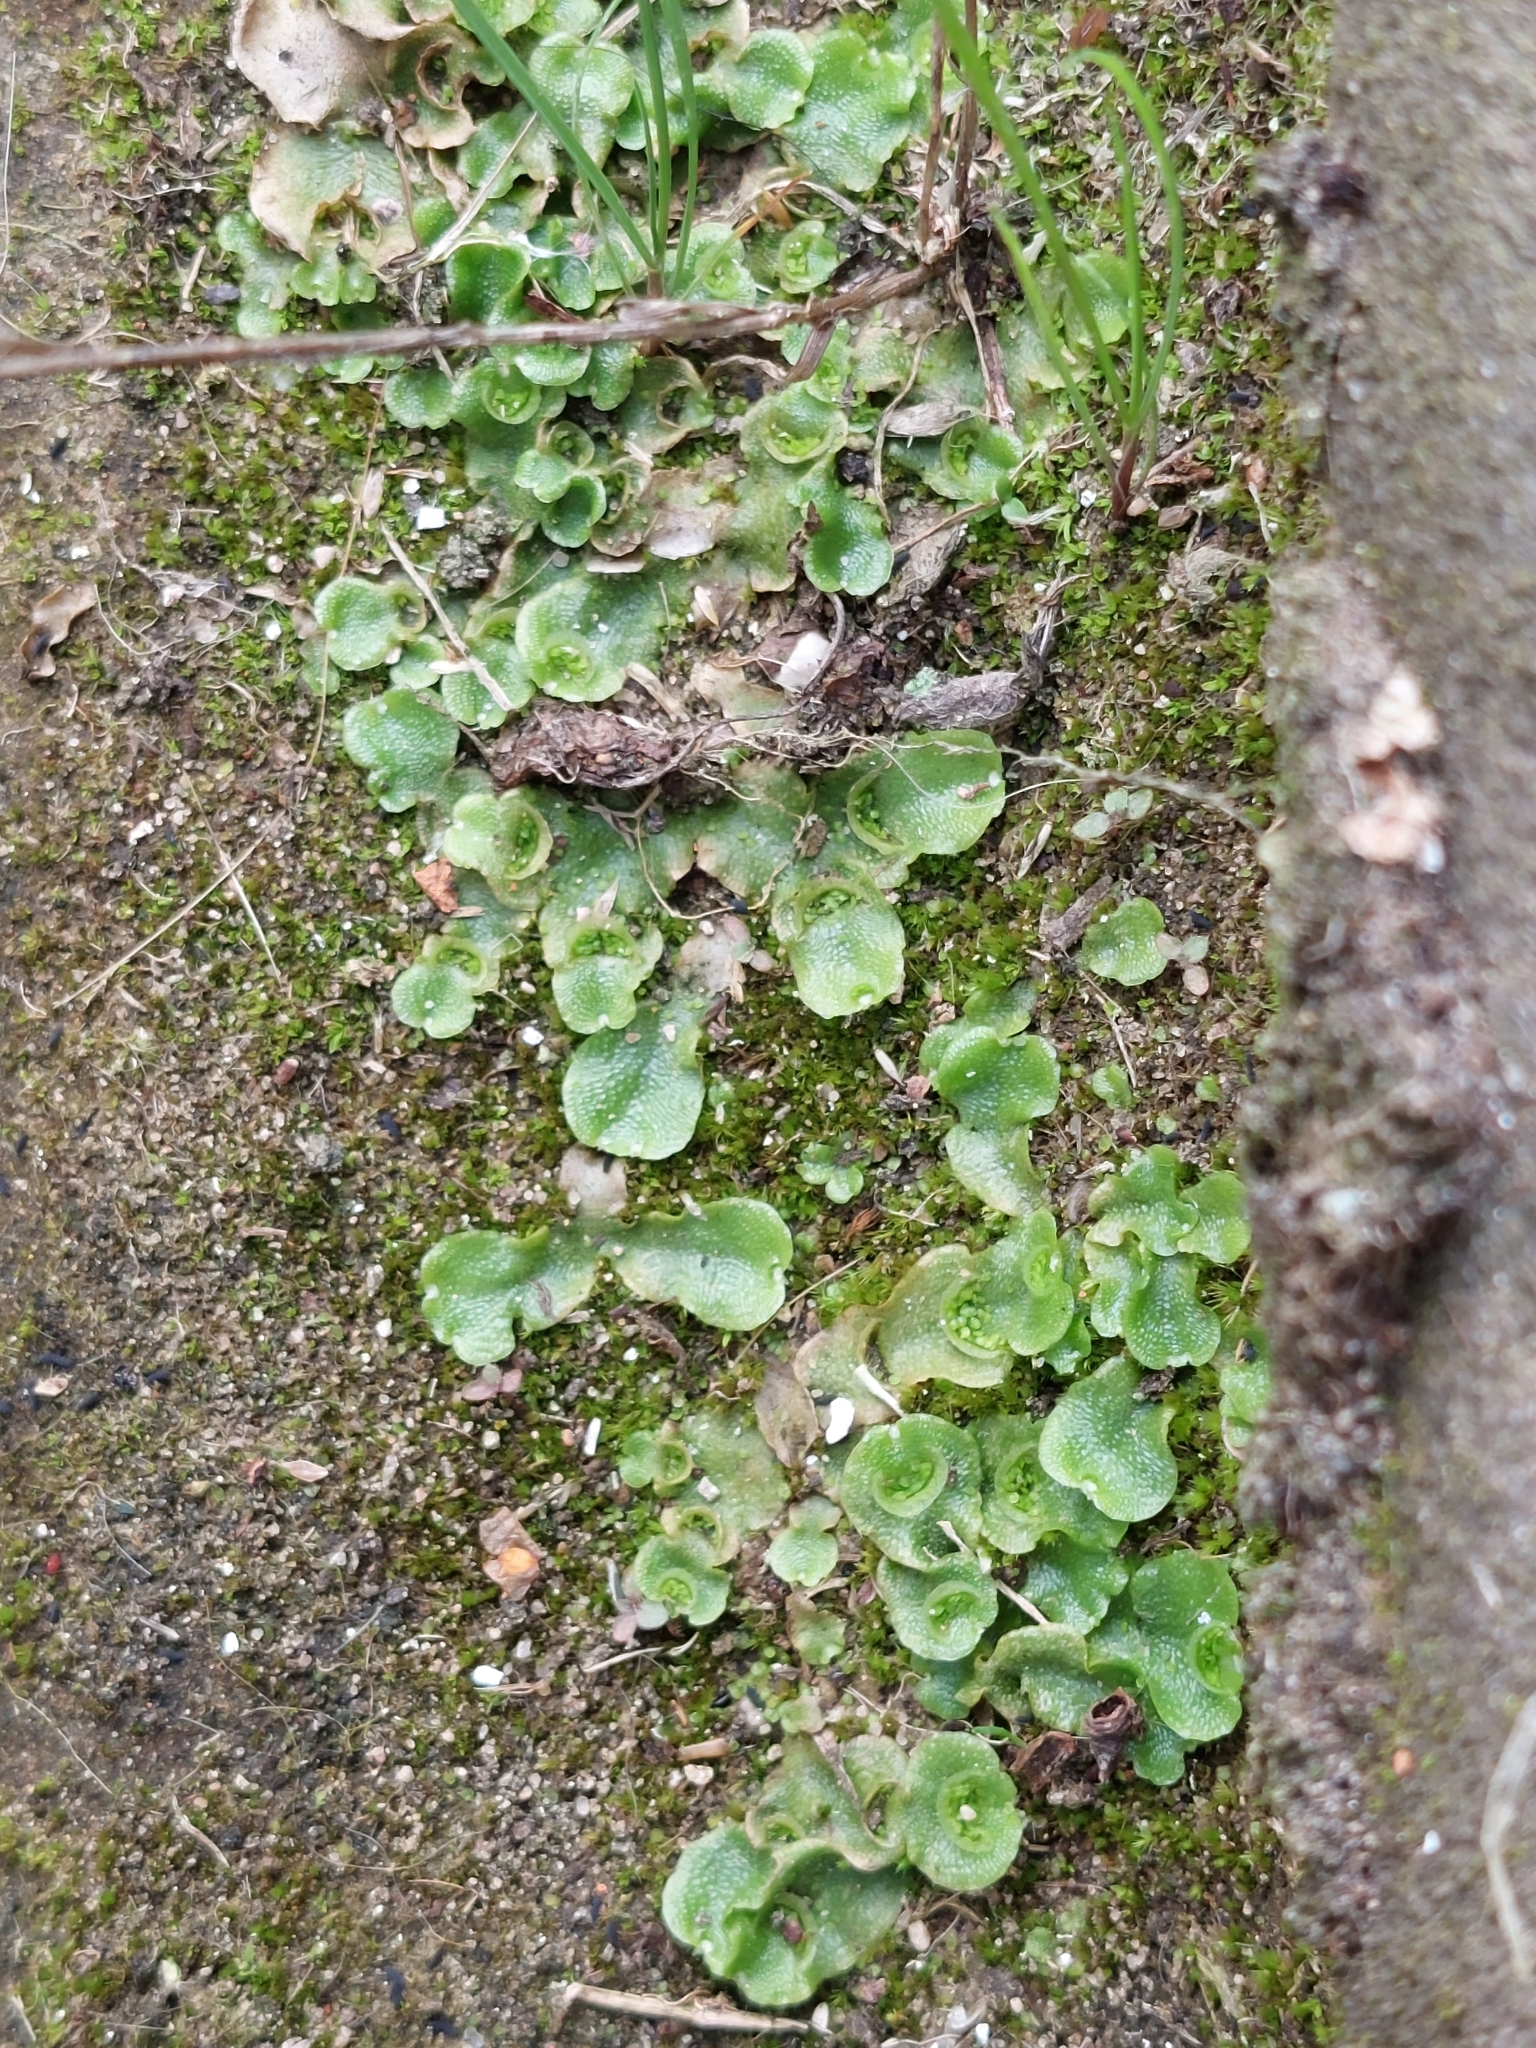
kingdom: Plantae
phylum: Marchantiophyta
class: Marchantiopsida
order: Lunulariales
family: Lunulariaceae
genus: Lunularia
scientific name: Lunularia cruciata
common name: Crescent-cup liverwort
